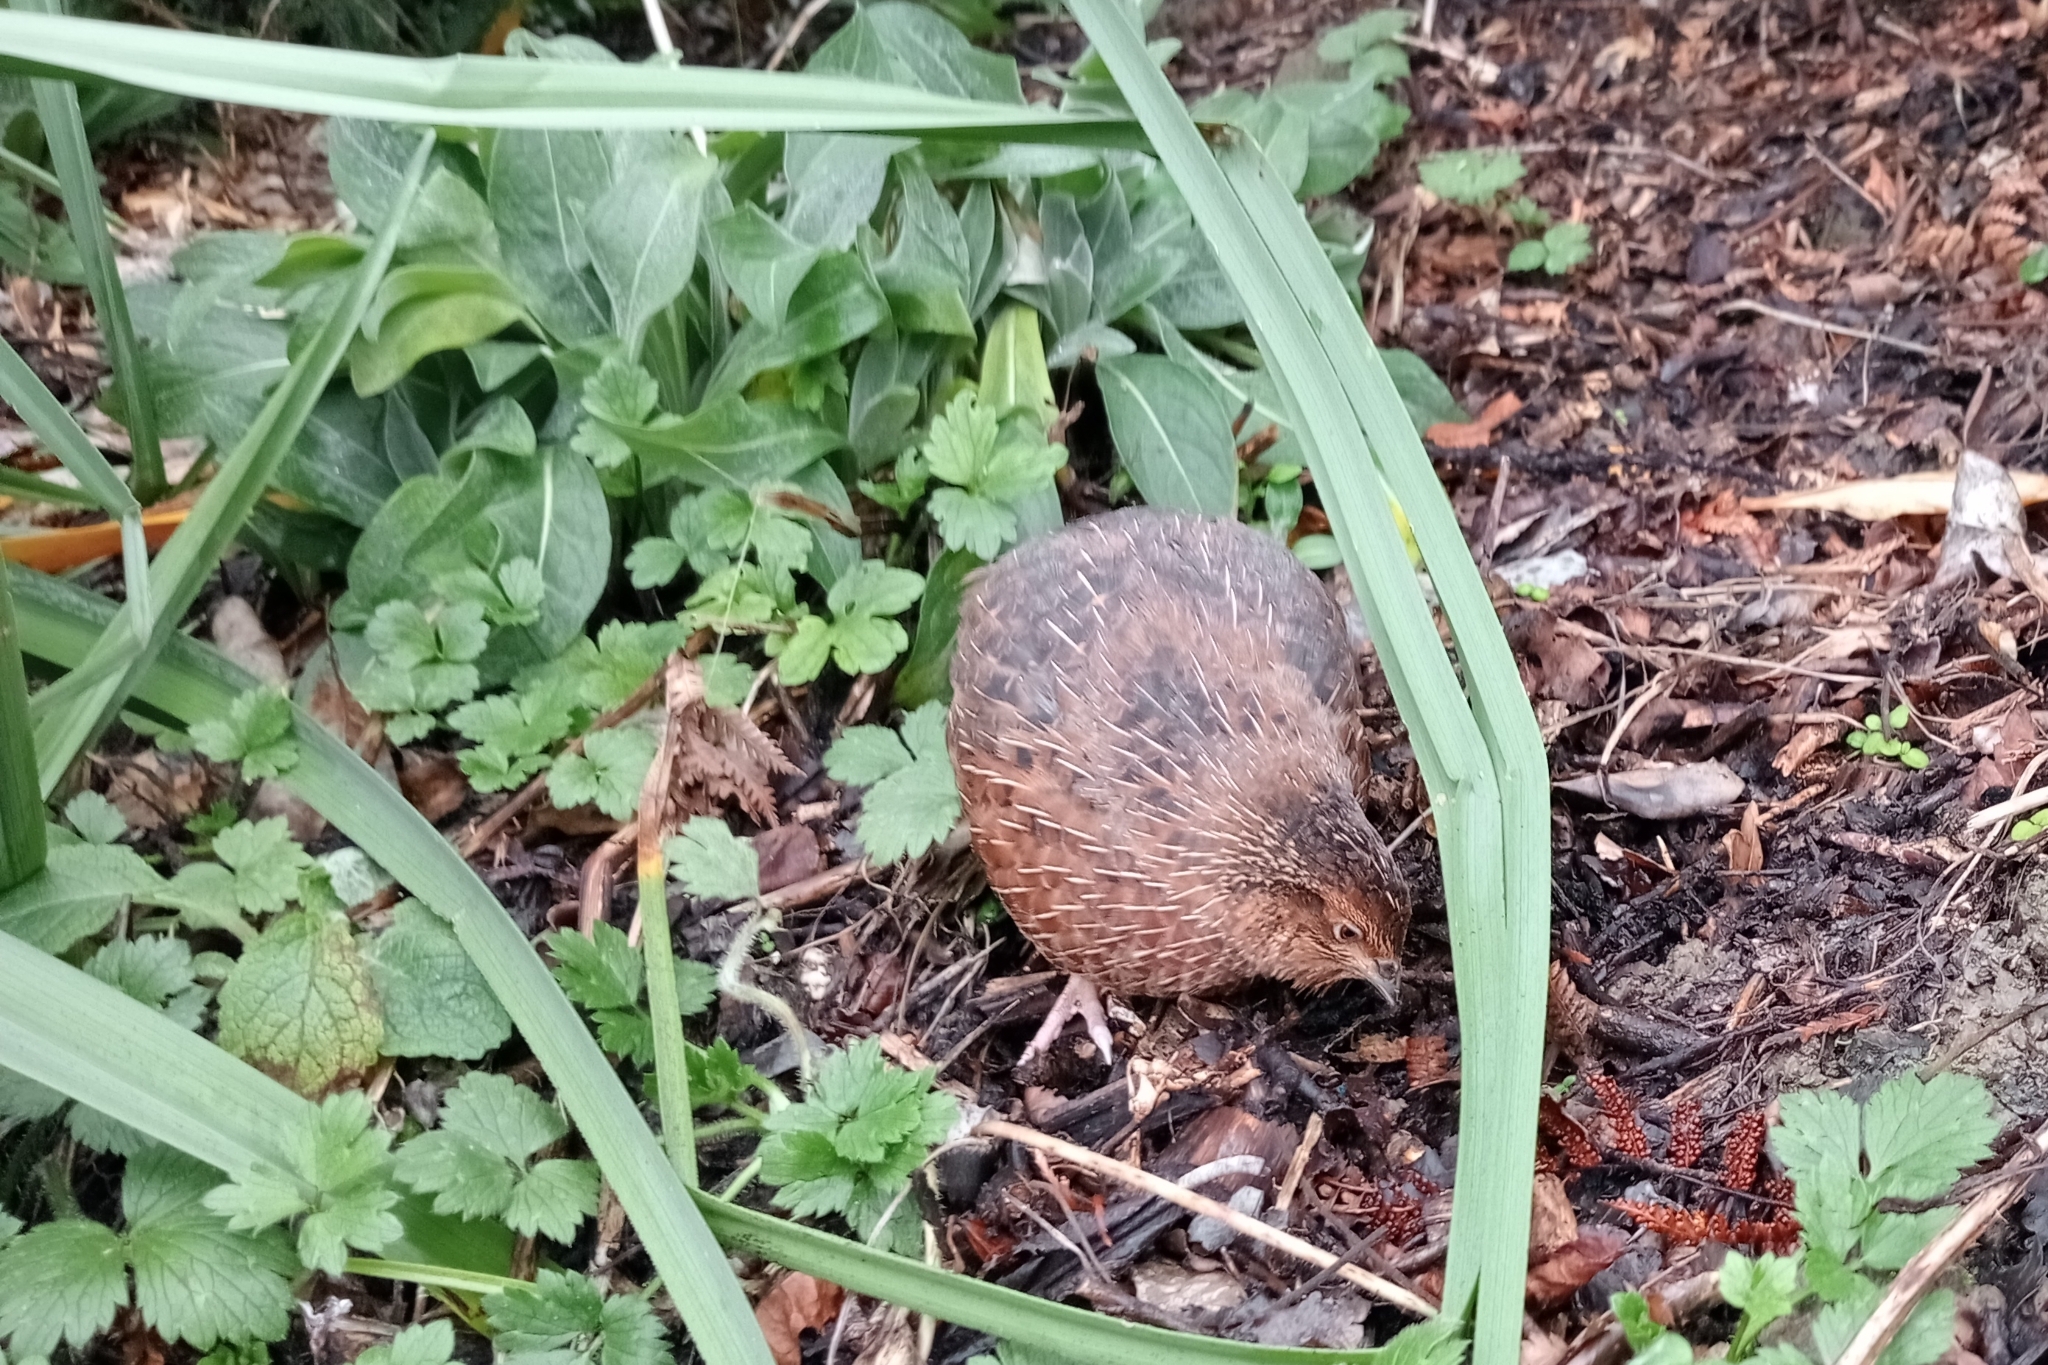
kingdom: Animalia
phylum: Chordata
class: Aves
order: Galliformes
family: Phasianidae
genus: Coturnix
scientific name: Coturnix japonica
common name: Japanese quail
